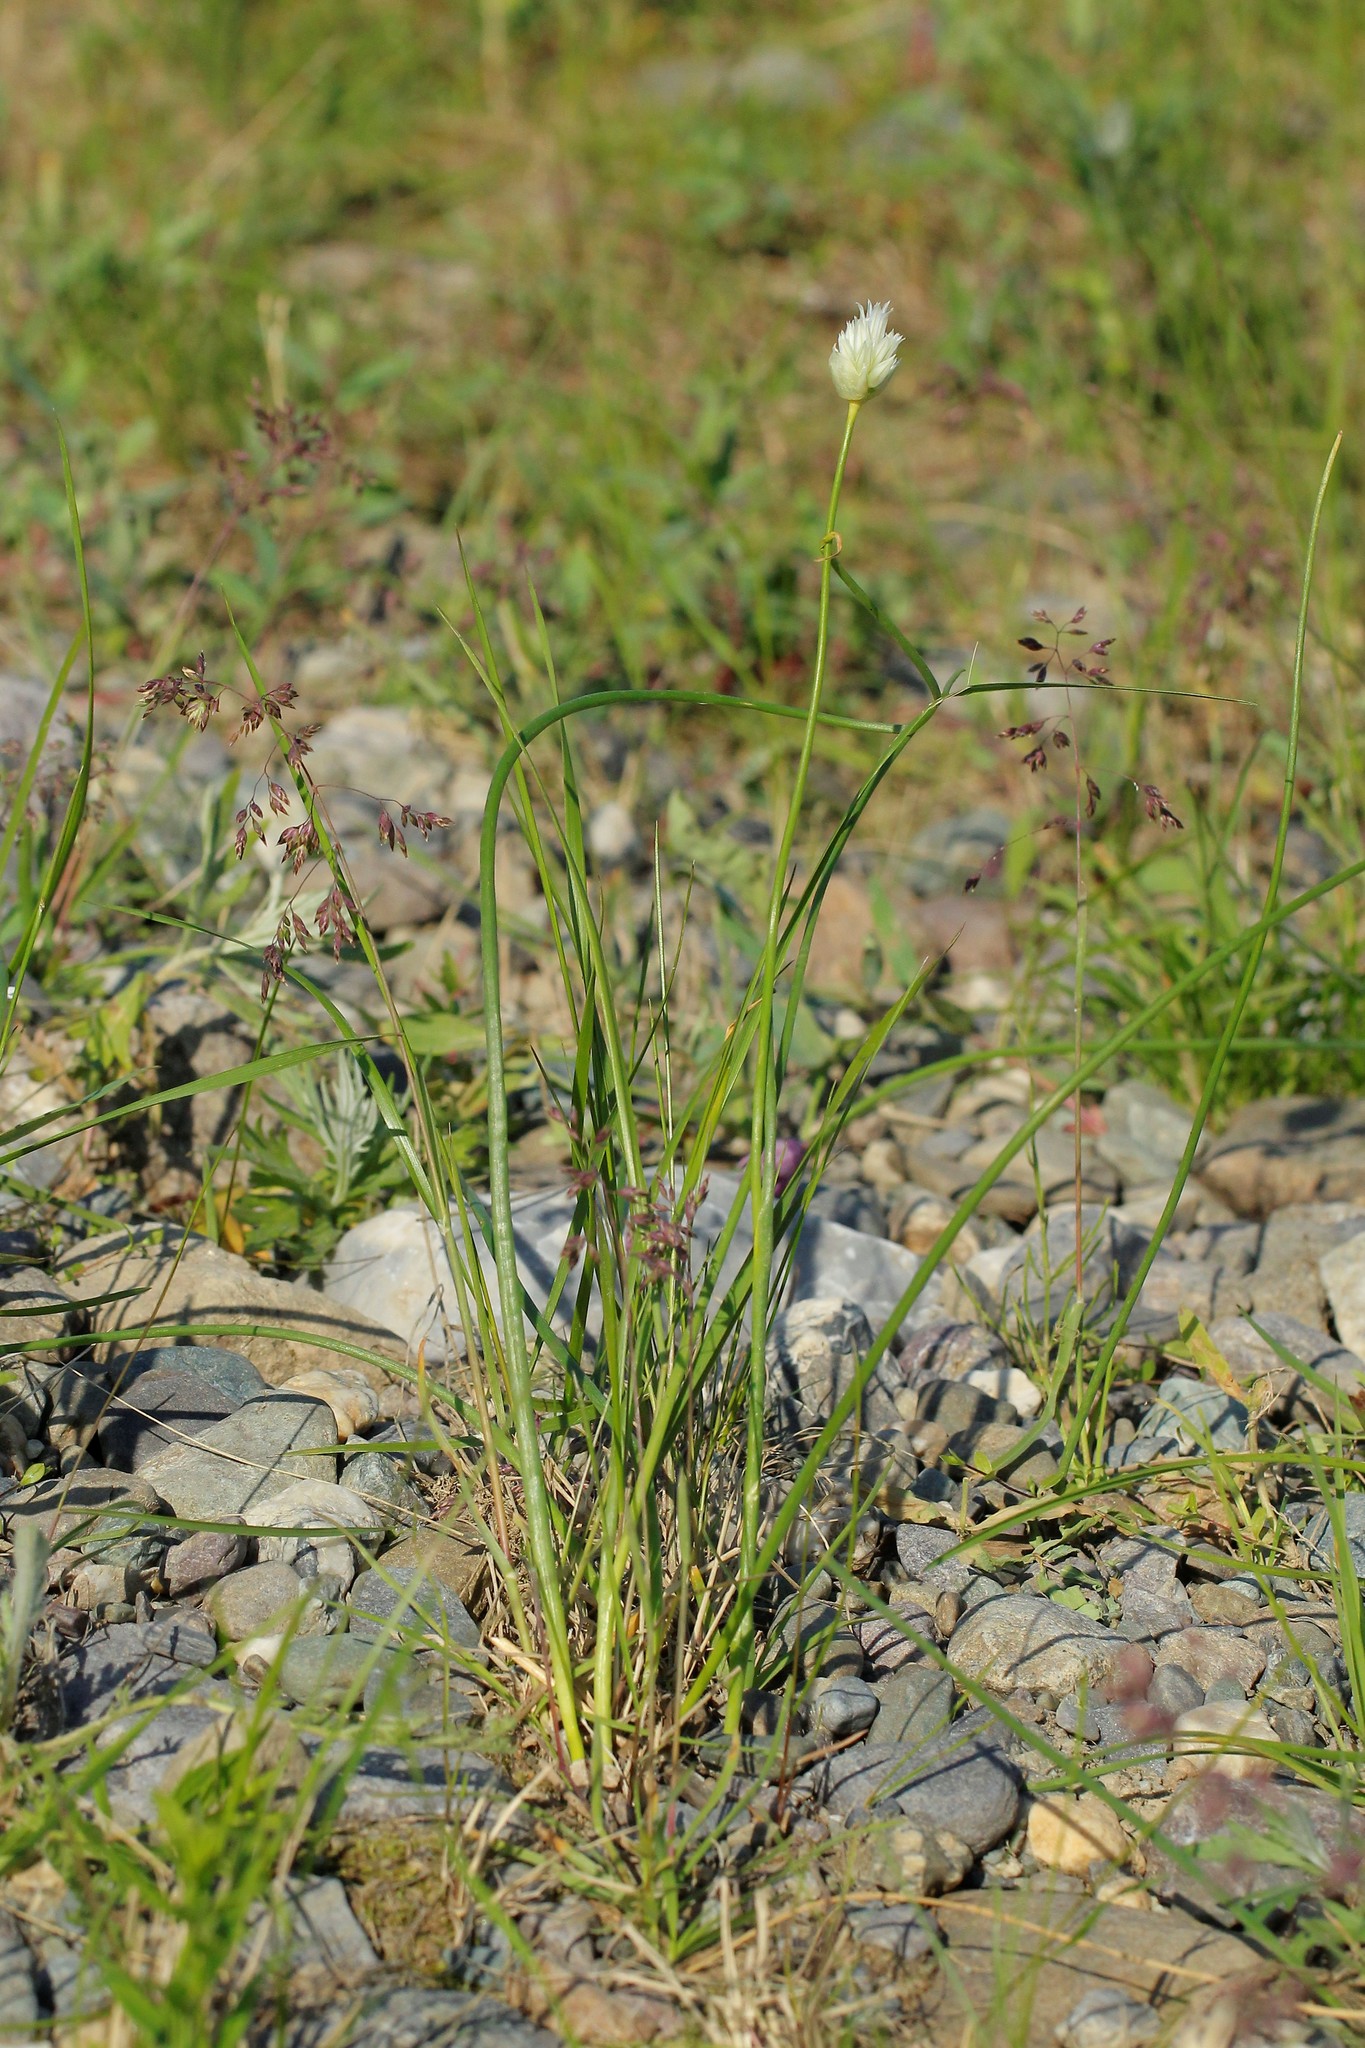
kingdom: Plantae
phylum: Tracheophyta
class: Liliopsida
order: Asparagales
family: Amaryllidaceae
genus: Allium
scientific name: Allium schoenoprasum
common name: Chives
